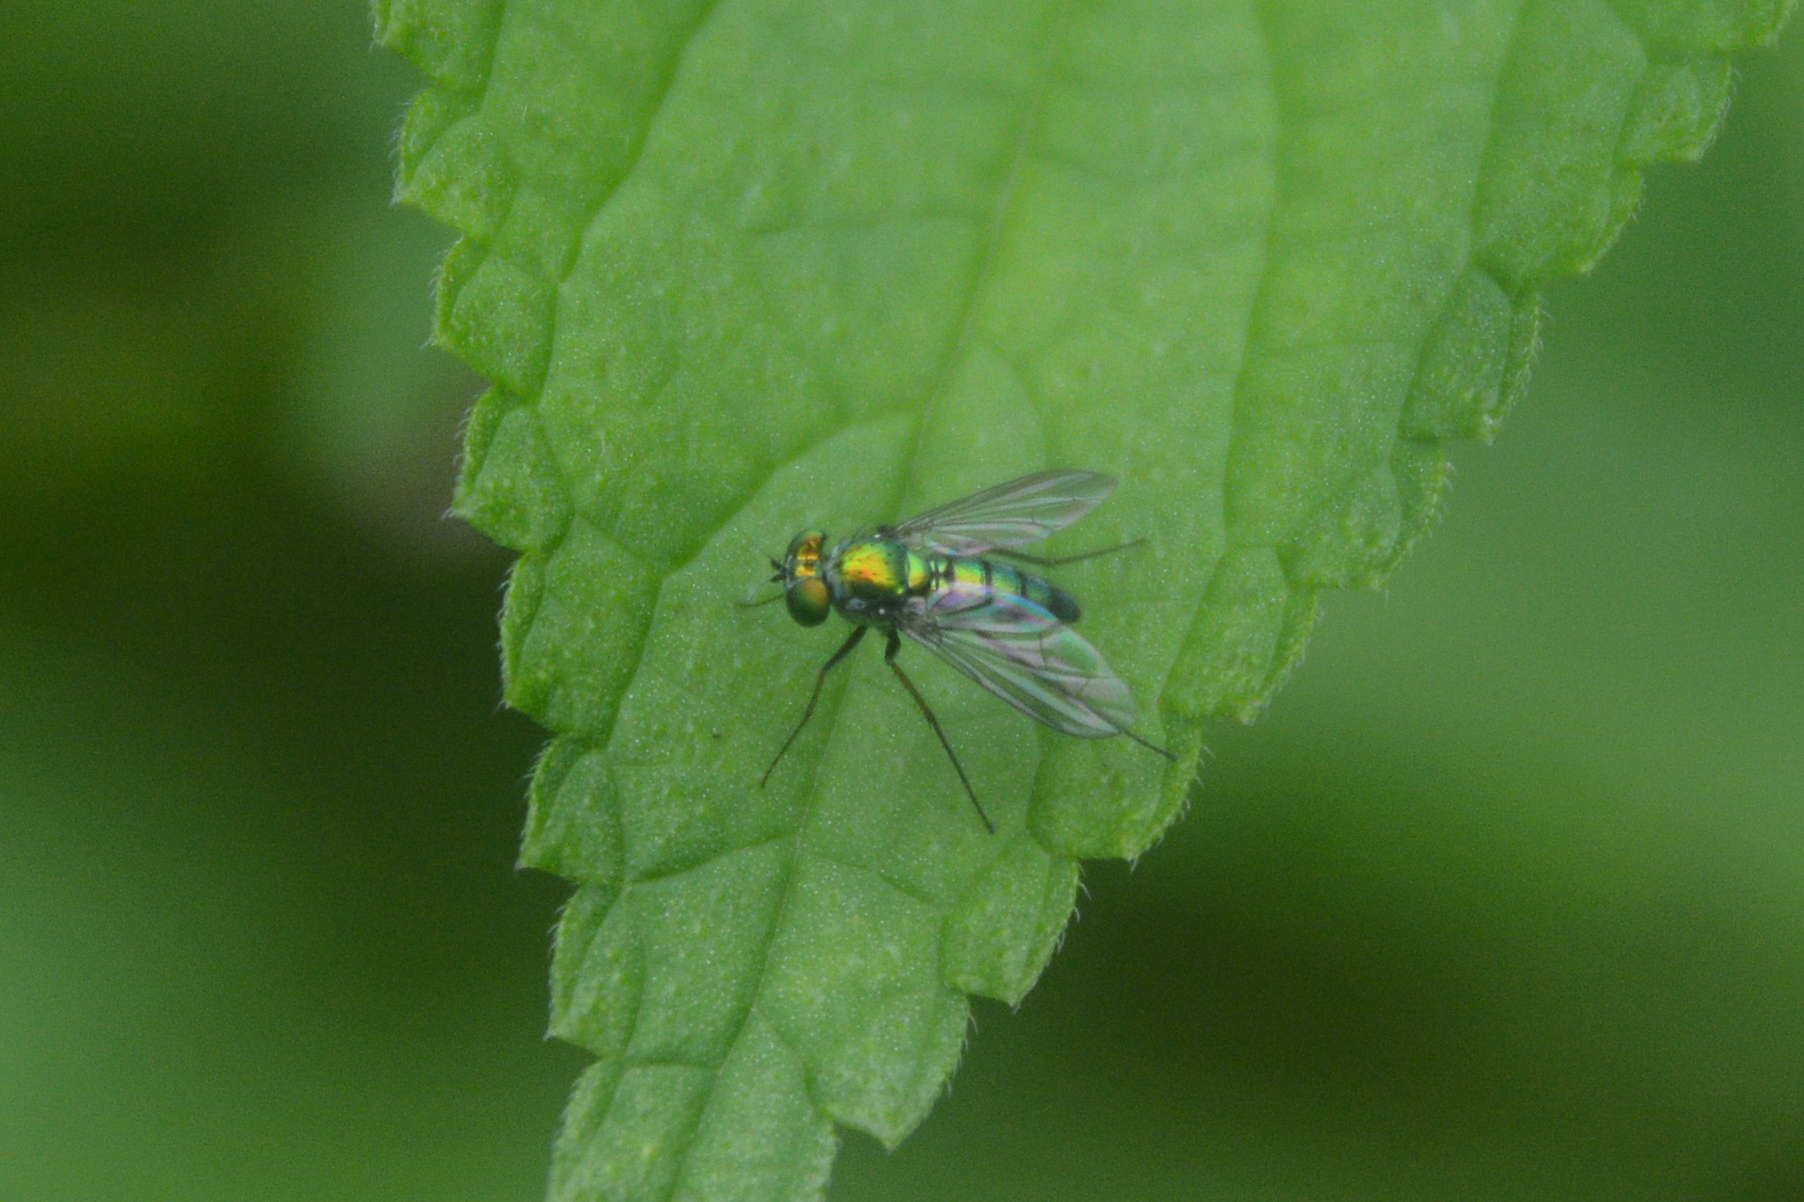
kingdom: Animalia
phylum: Arthropoda
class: Insecta
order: Diptera
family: Dolichopodidae
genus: Condylostylus
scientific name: Condylostylus longicornis
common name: Long-legged fly
